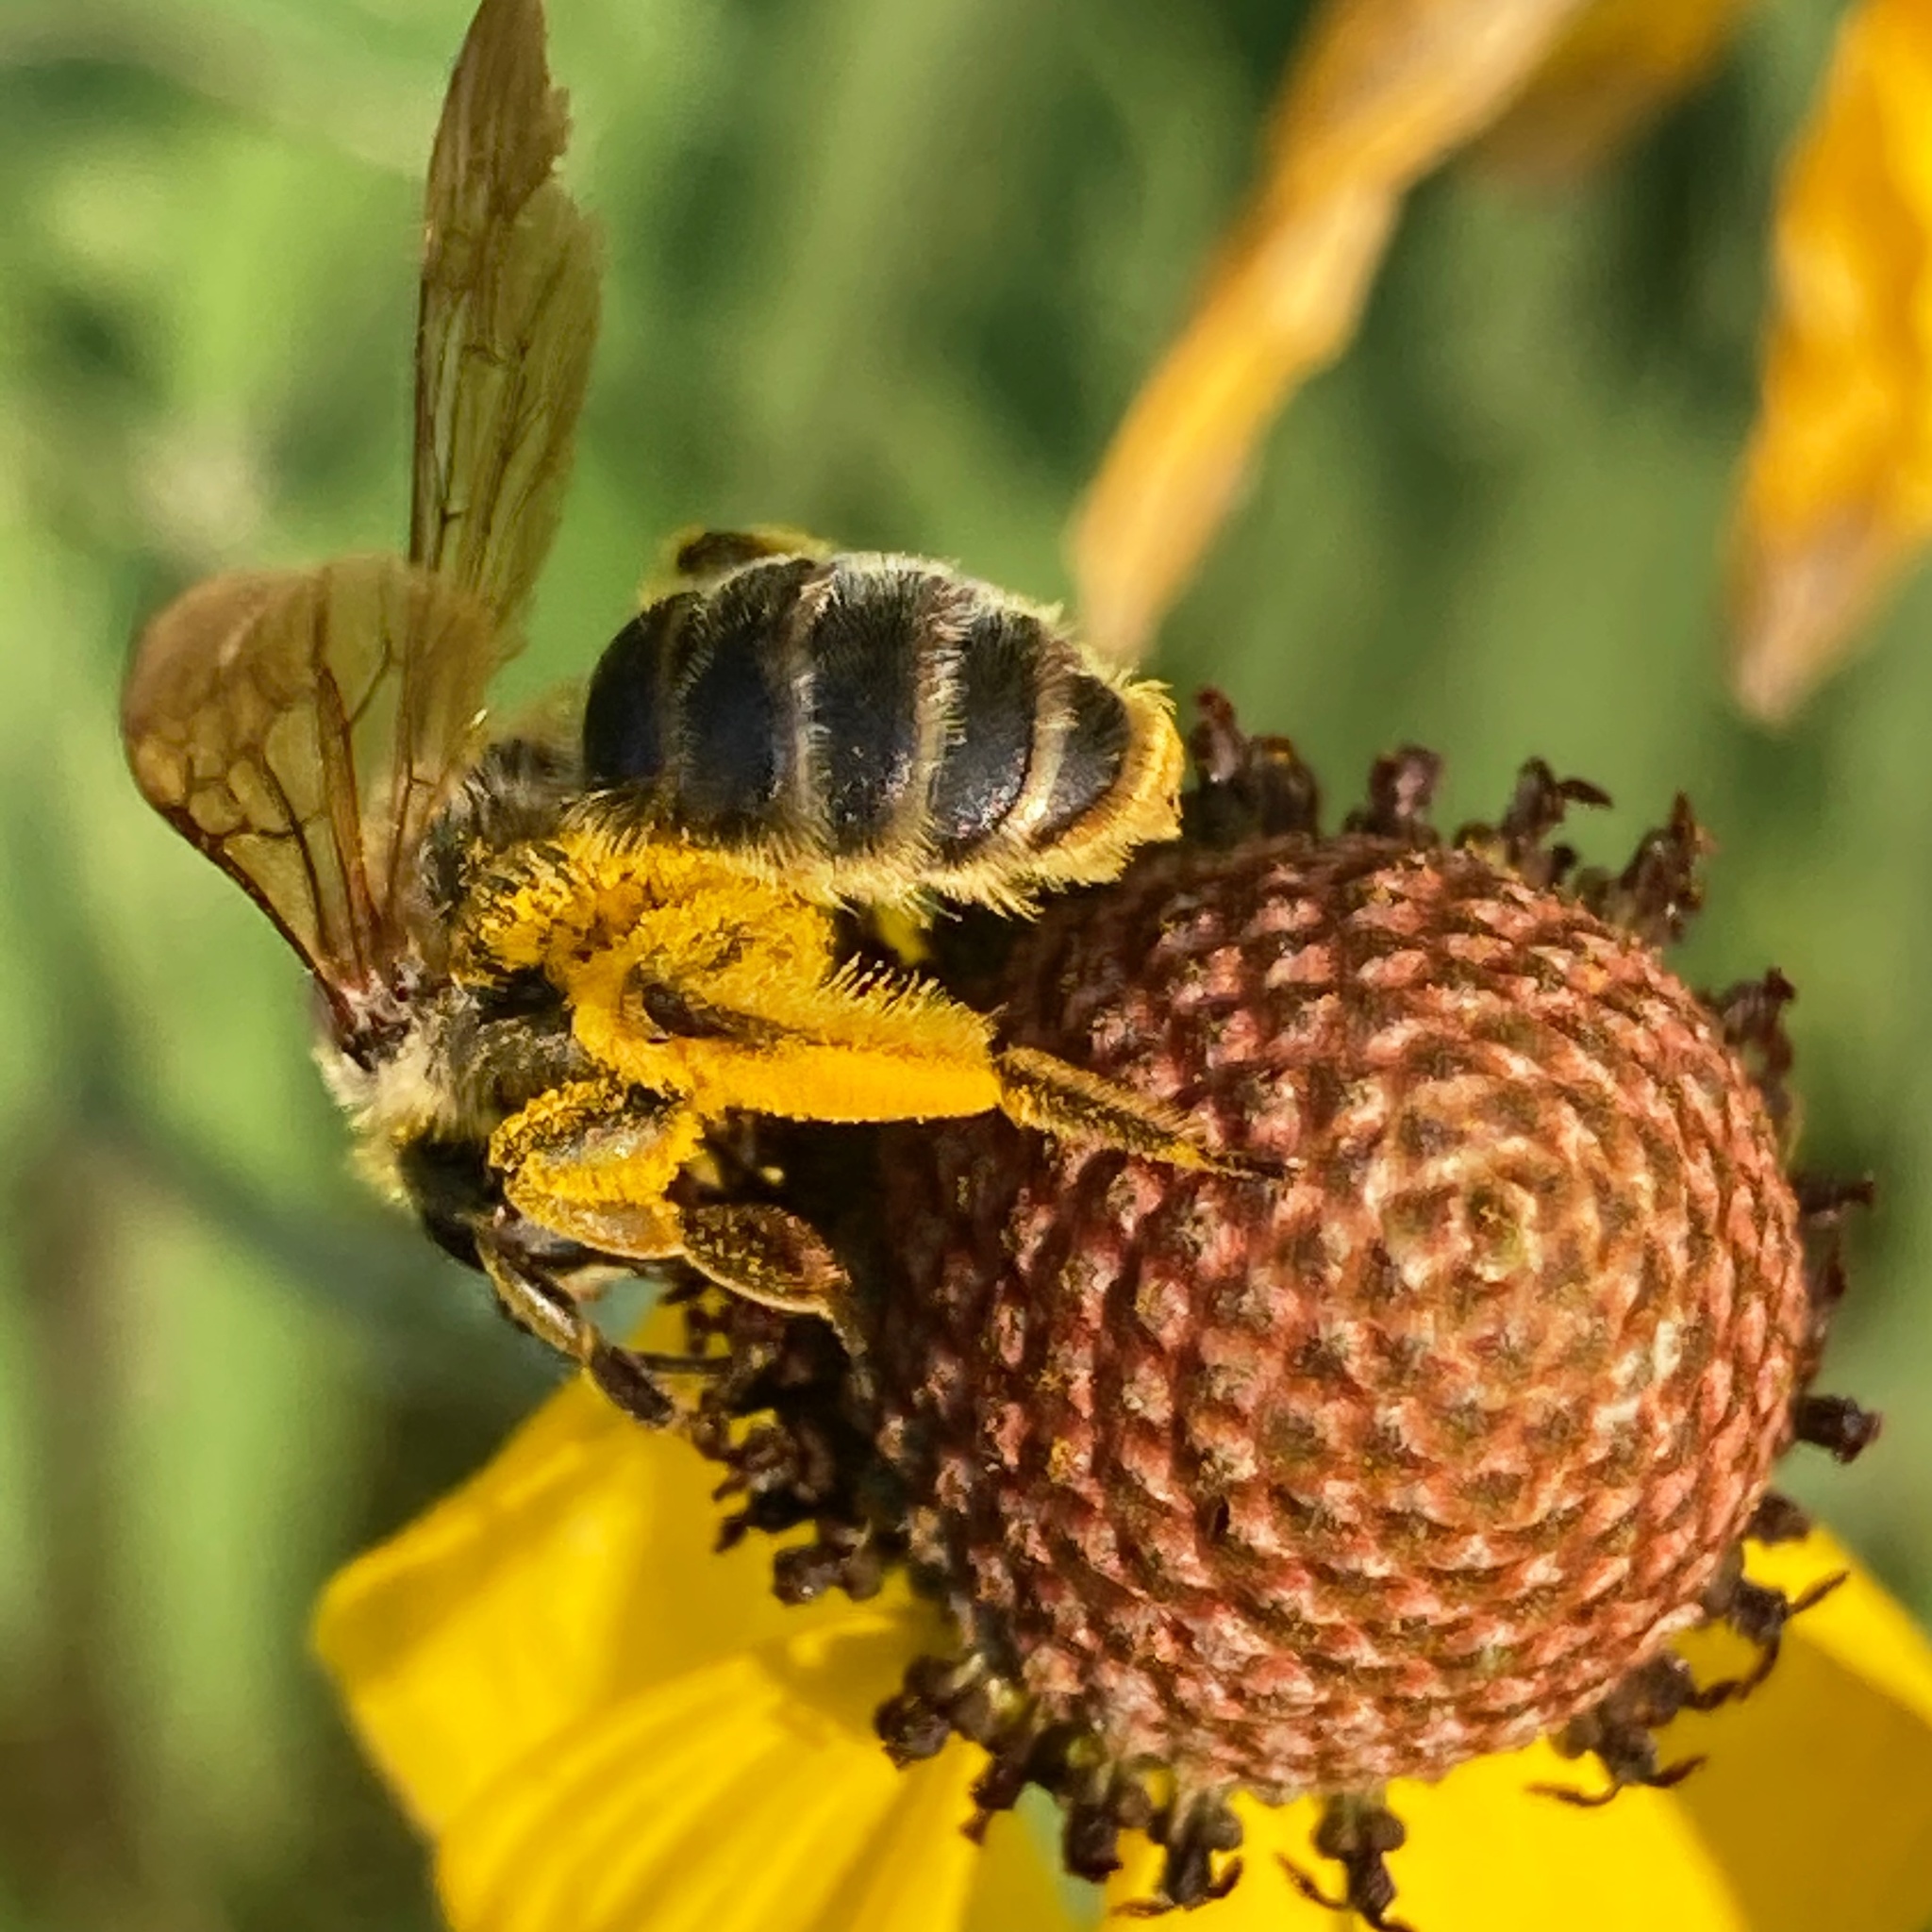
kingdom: Animalia
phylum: Arthropoda
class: Insecta
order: Hymenoptera
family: Andrenidae
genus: Andrena
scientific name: Andrena rudbeckiae
